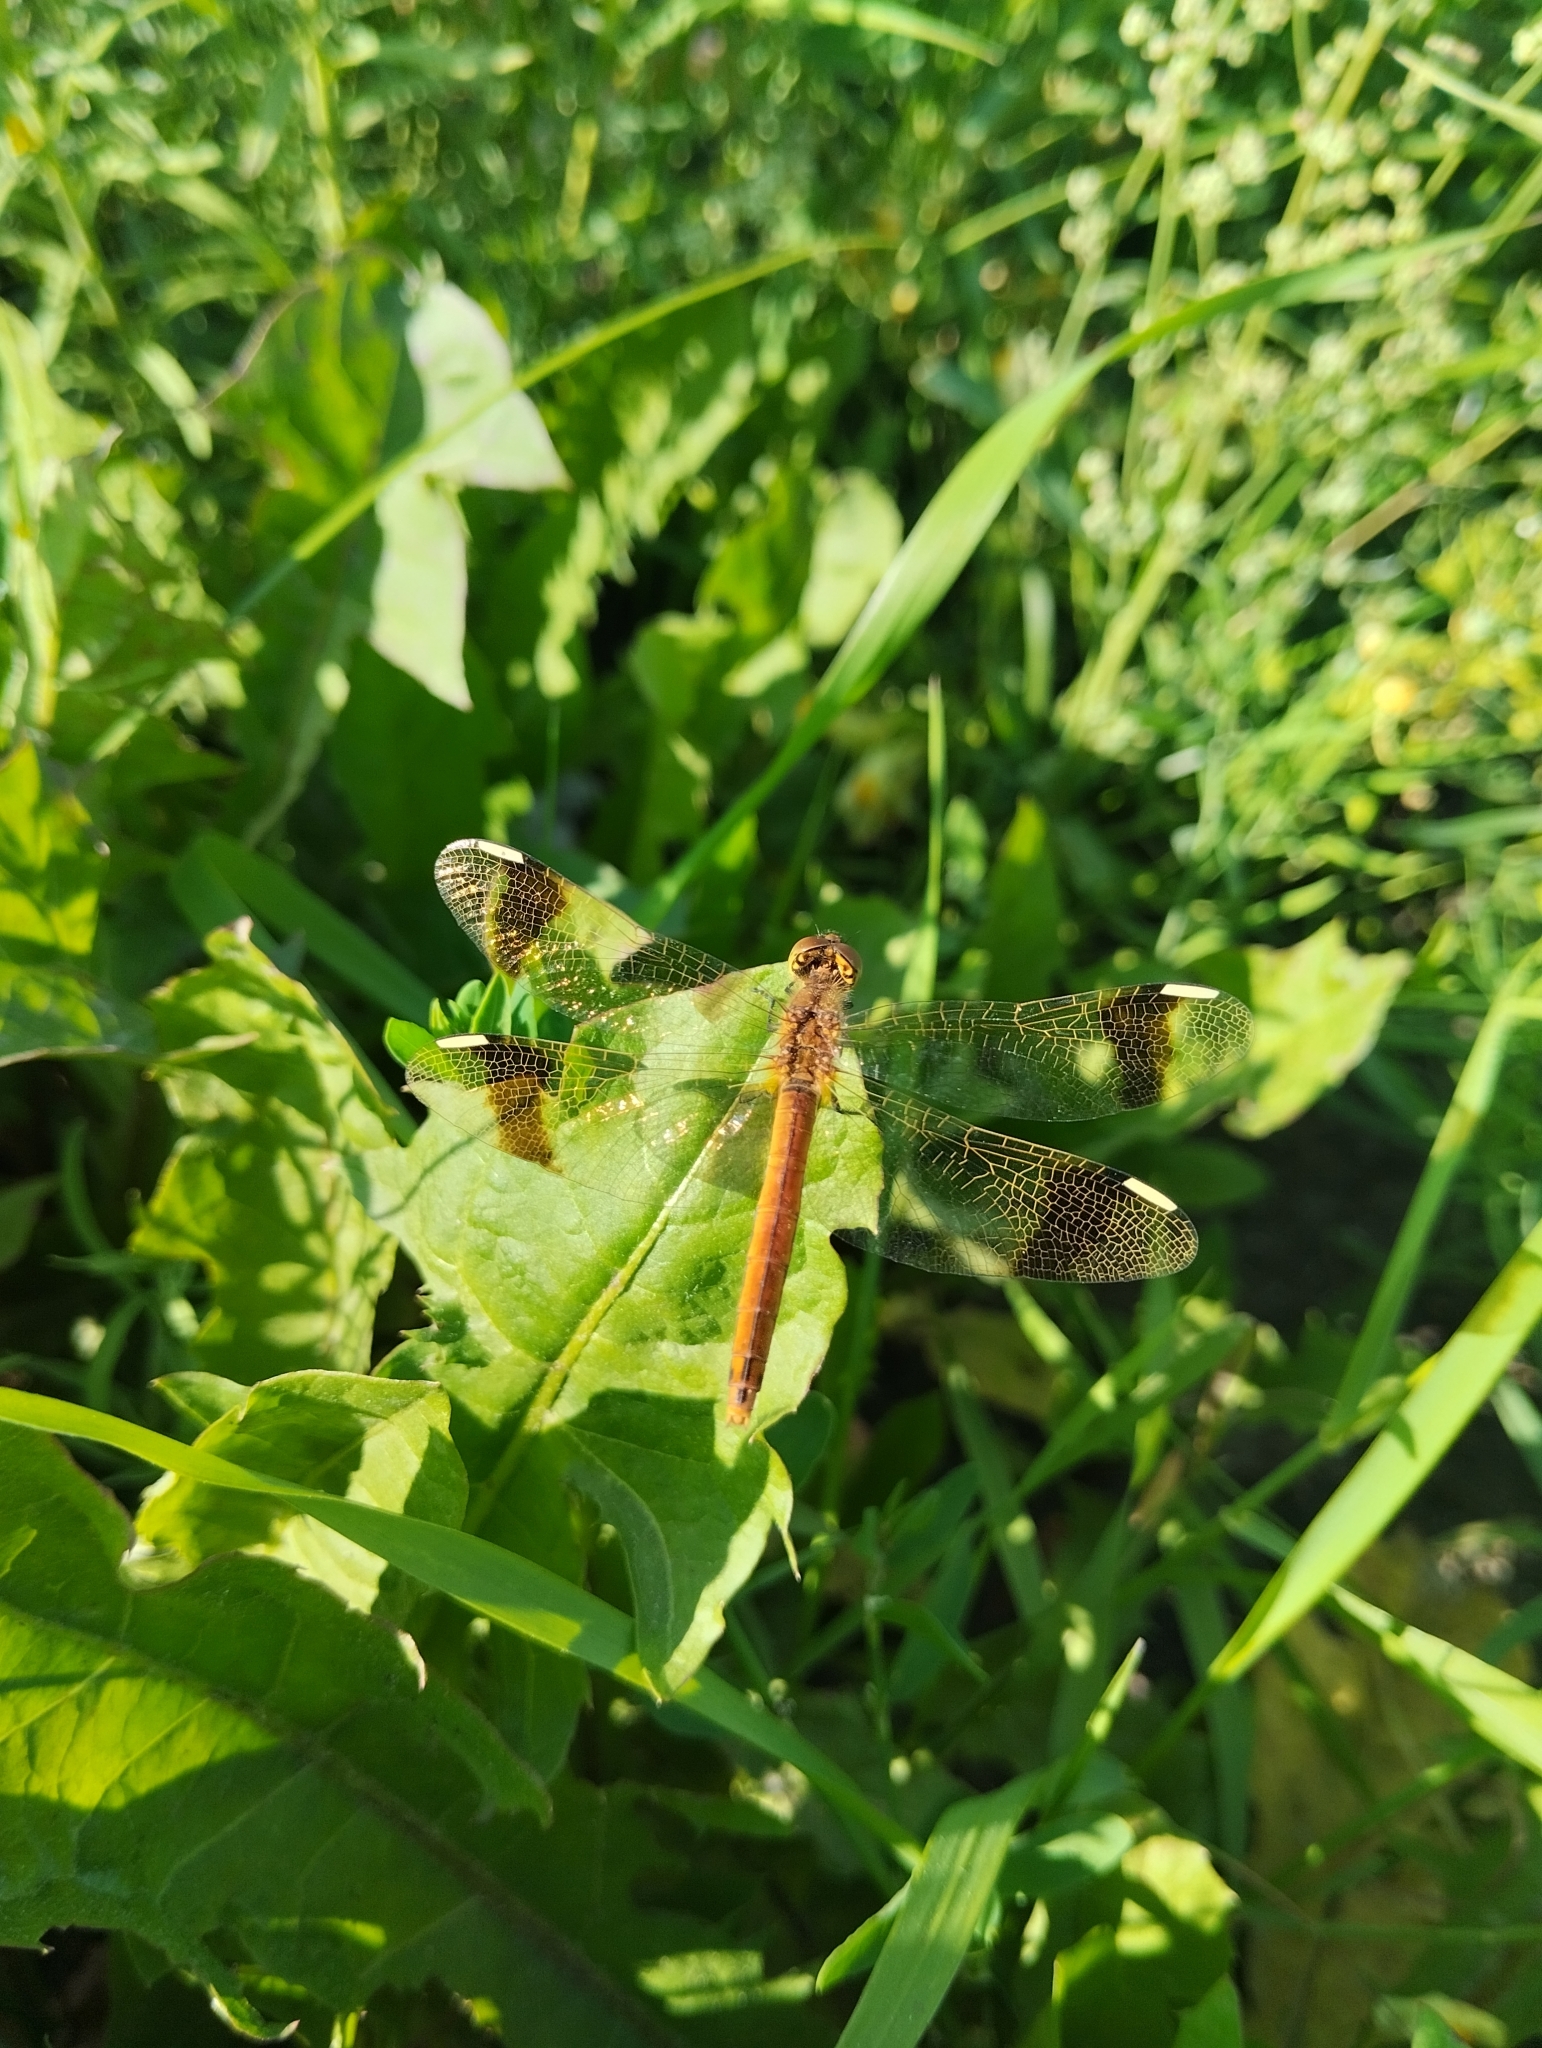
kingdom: Animalia
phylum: Arthropoda
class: Insecta
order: Odonata
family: Libellulidae
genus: Sympetrum
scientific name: Sympetrum pedemontanum
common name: Banded darter
